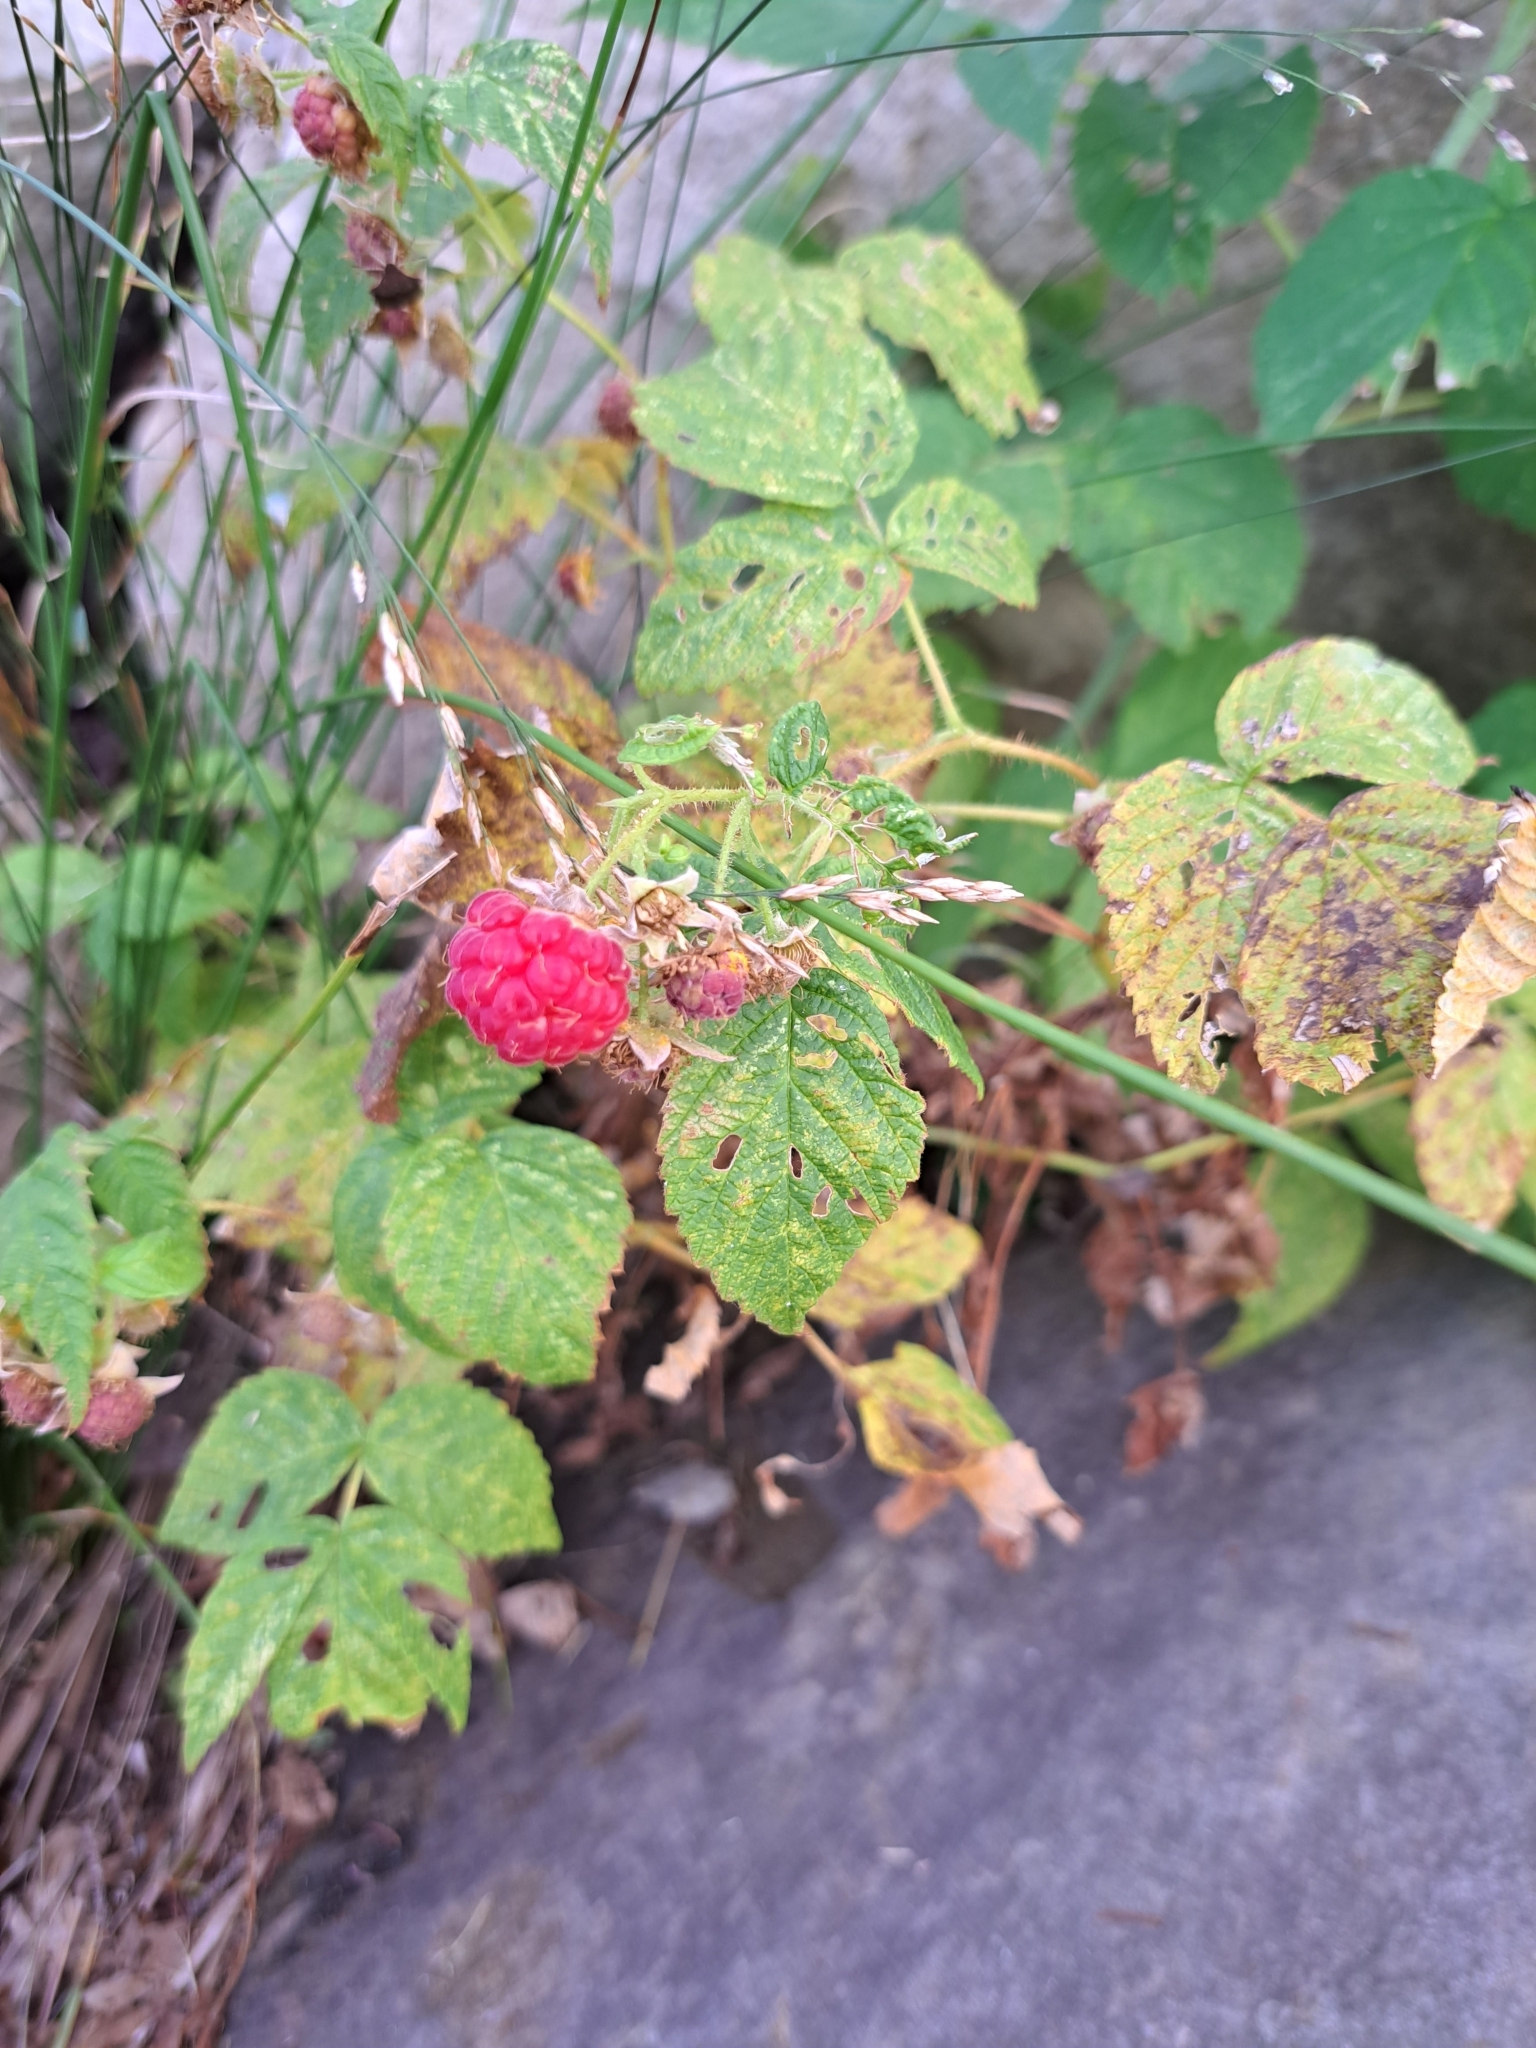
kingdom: Plantae
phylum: Tracheophyta
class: Magnoliopsida
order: Rosales
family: Rosaceae
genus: Rubus
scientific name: Rubus idaeus
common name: Raspberry
